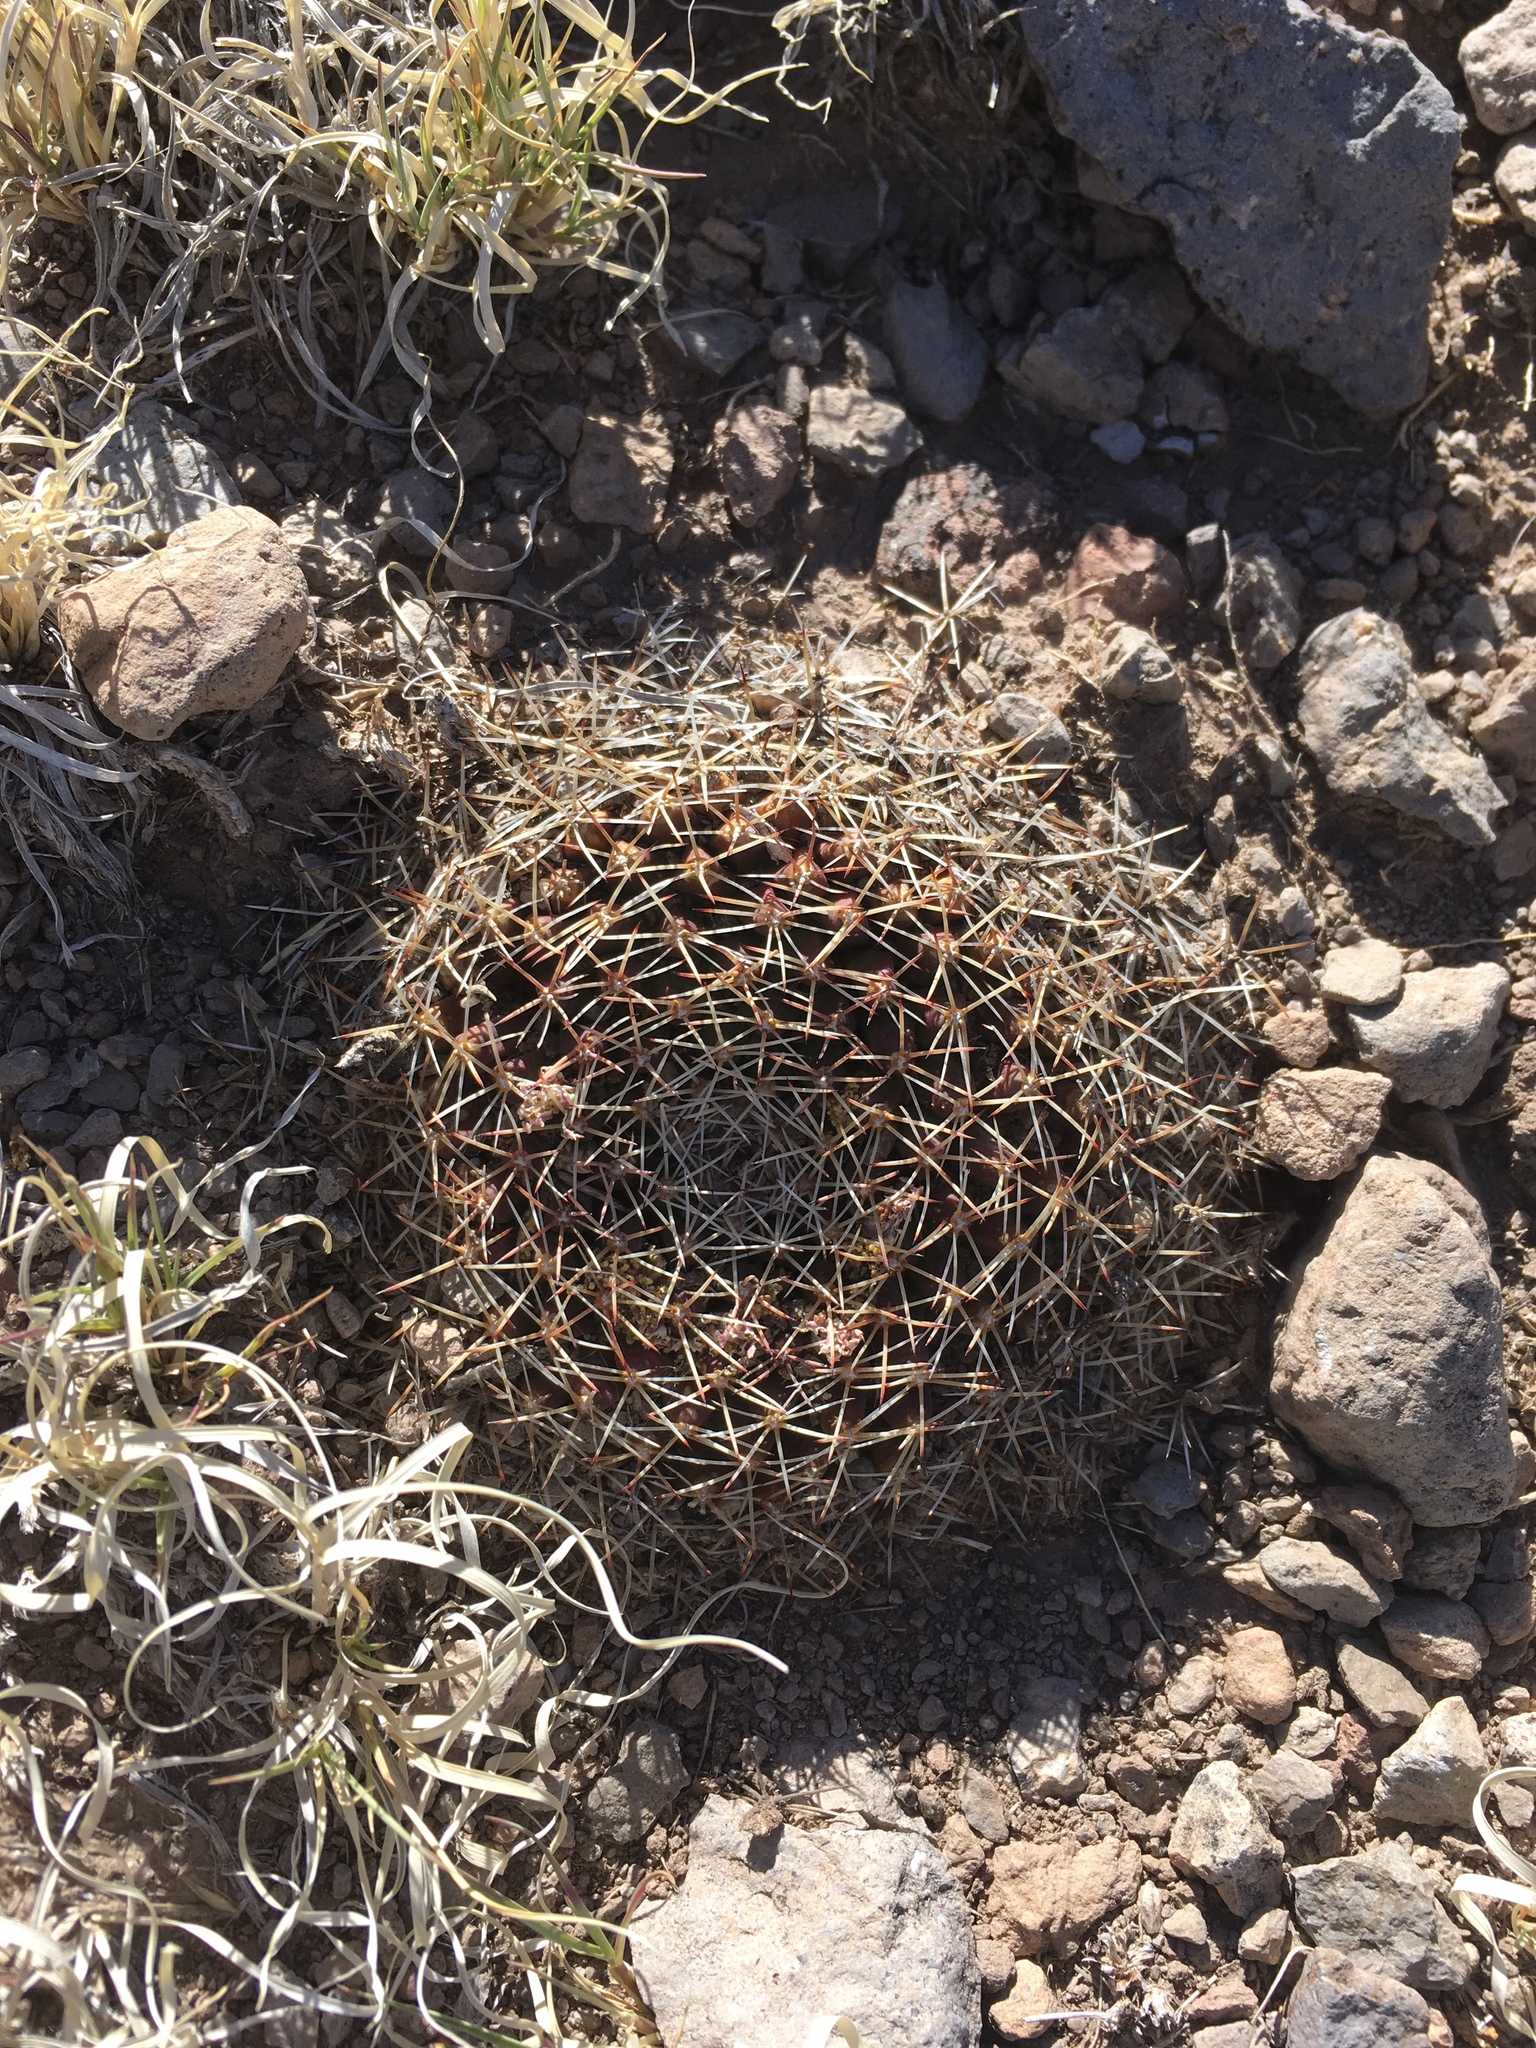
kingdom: Plantae
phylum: Tracheophyta
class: Magnoliopsida
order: Caryophyllales
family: Cactaceae
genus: Mammillaria
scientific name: Mammillaria heyderi
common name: Little nipple cactus
